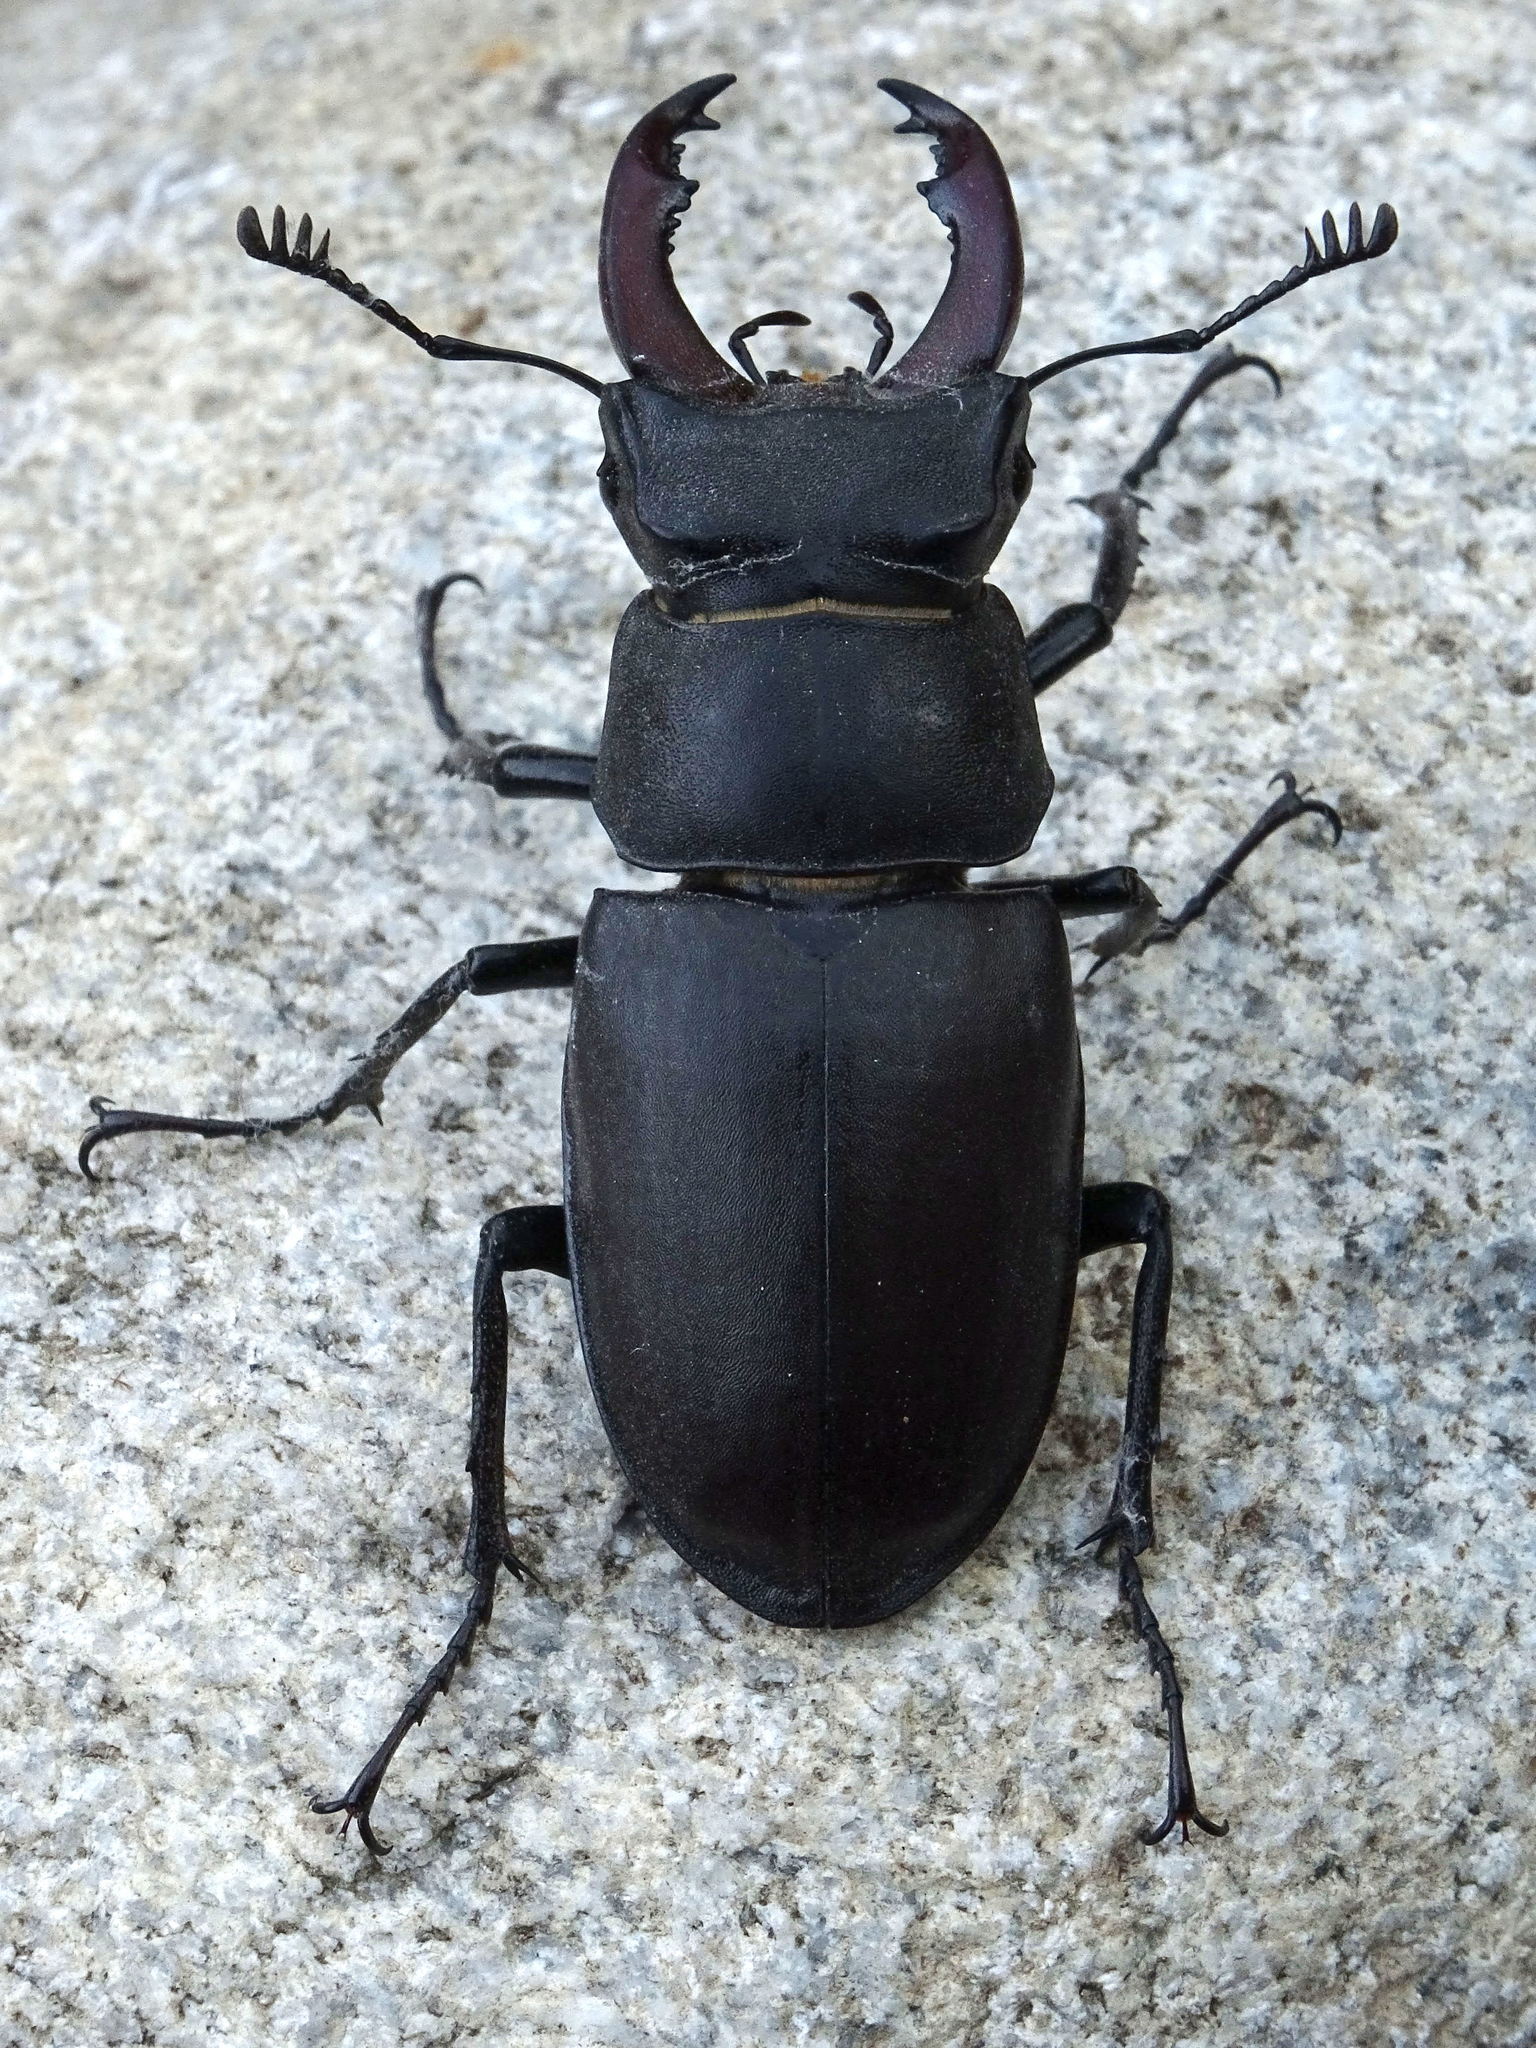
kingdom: Animalia
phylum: Arthropoda
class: Insecta
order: Coleoptera
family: Lucanidae
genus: Lucanus
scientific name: Lucanus cervus
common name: Stag beetle
